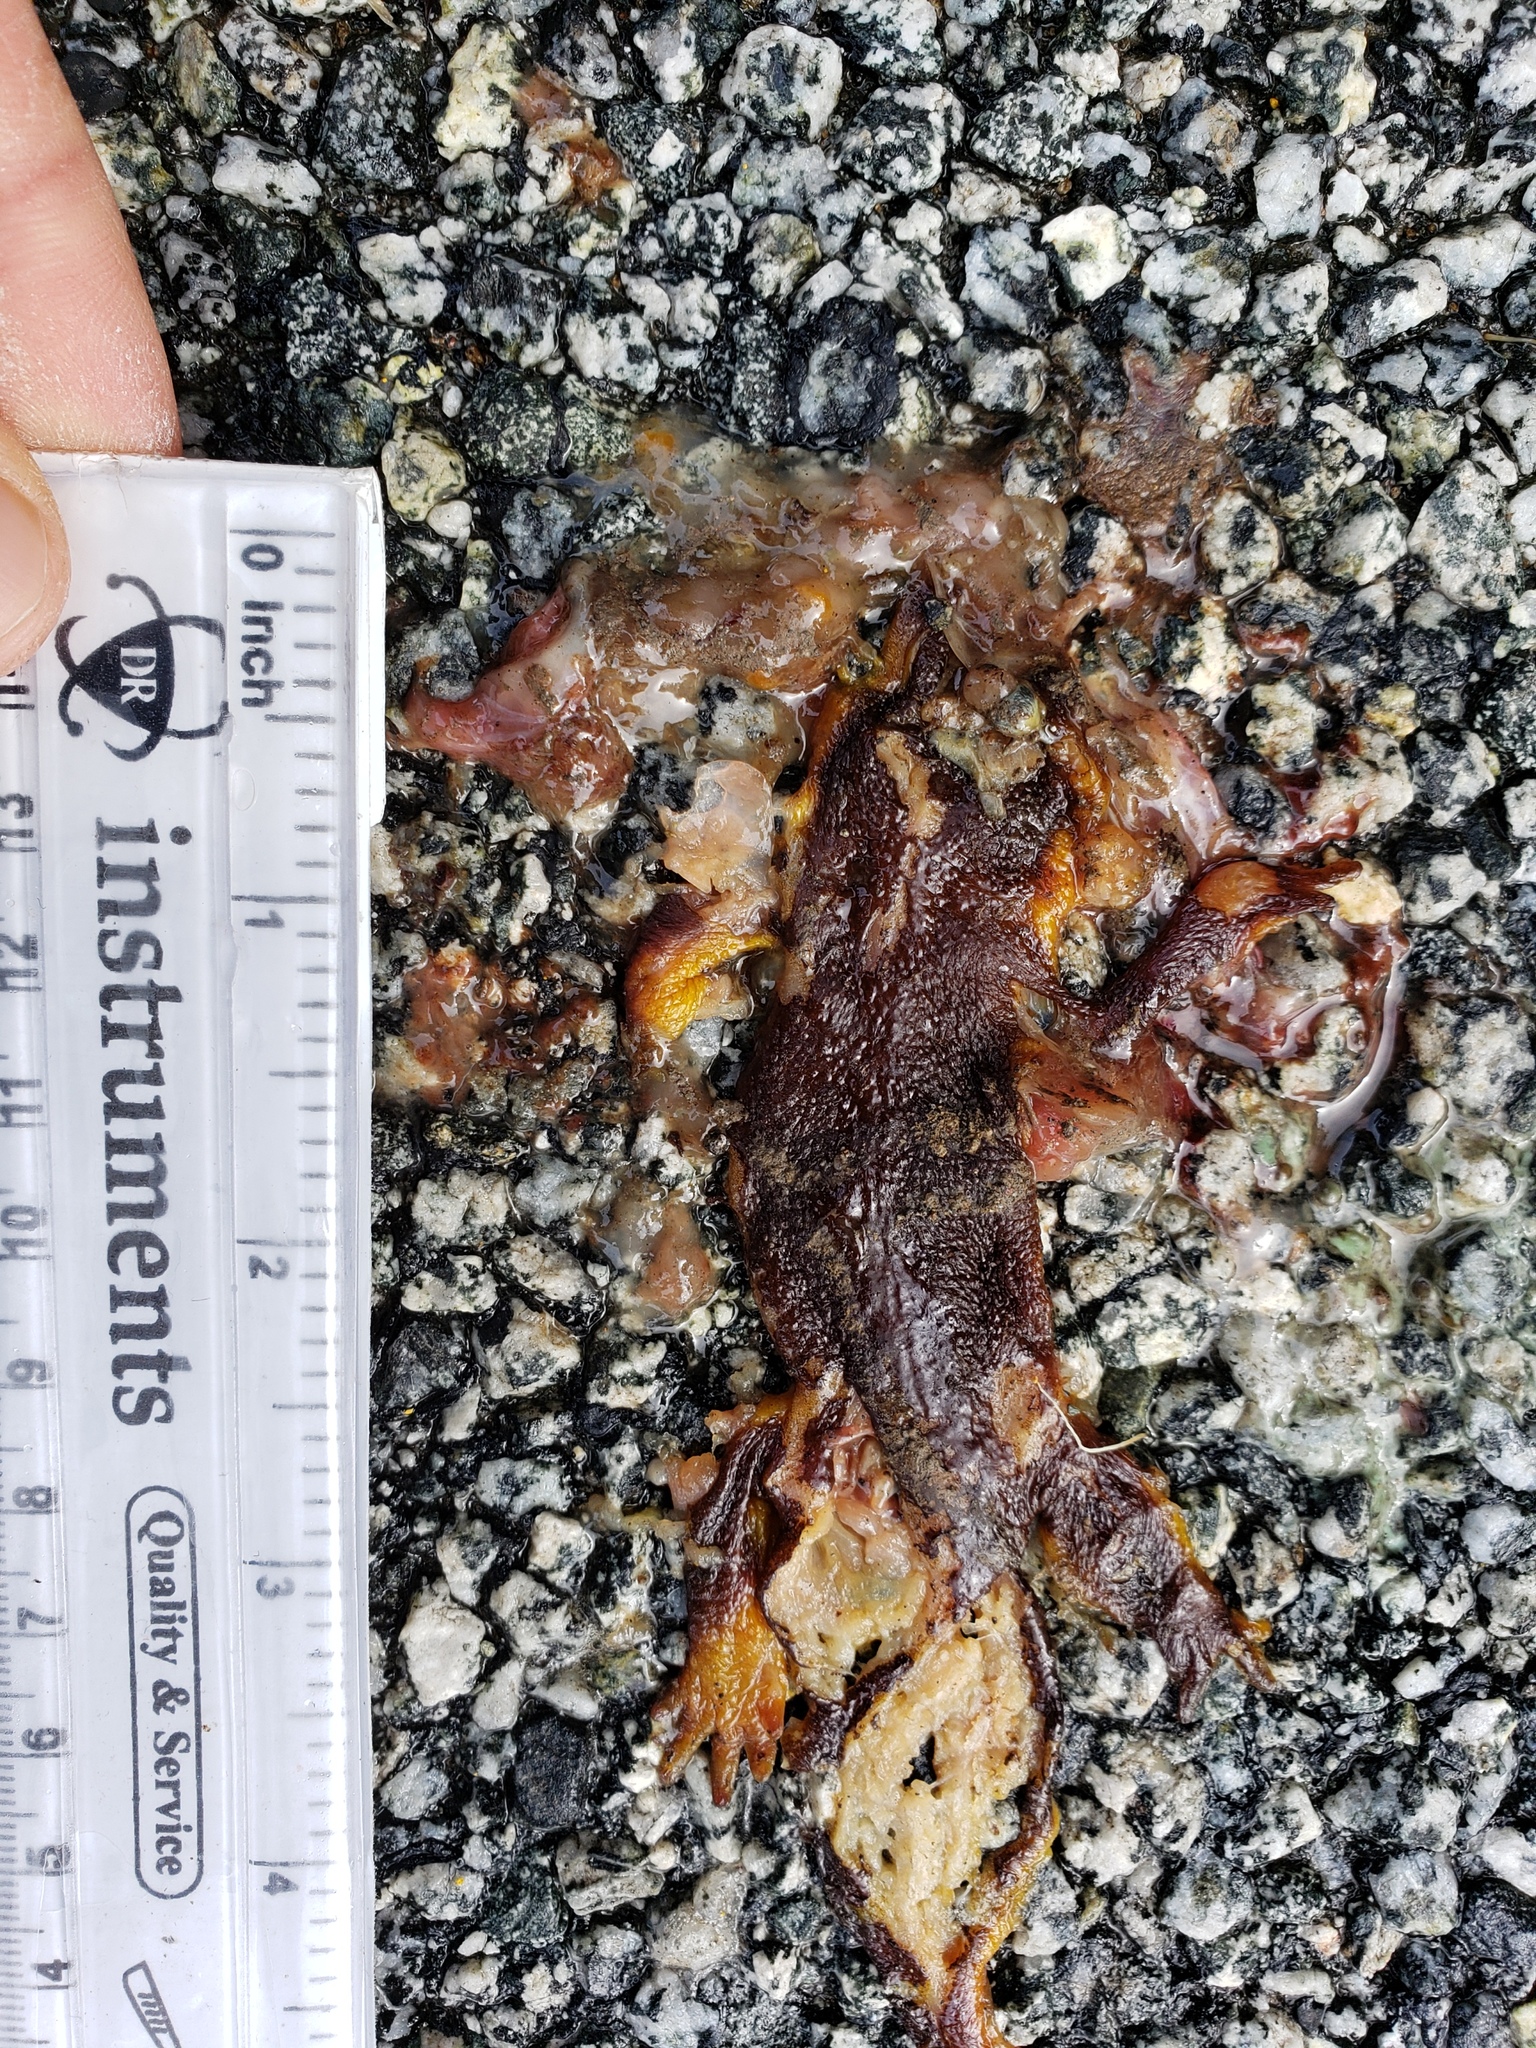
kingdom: Animalia
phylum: Chordata
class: Amphibia
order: Caudata
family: Salamandridae
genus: Taricha
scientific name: Taricha
